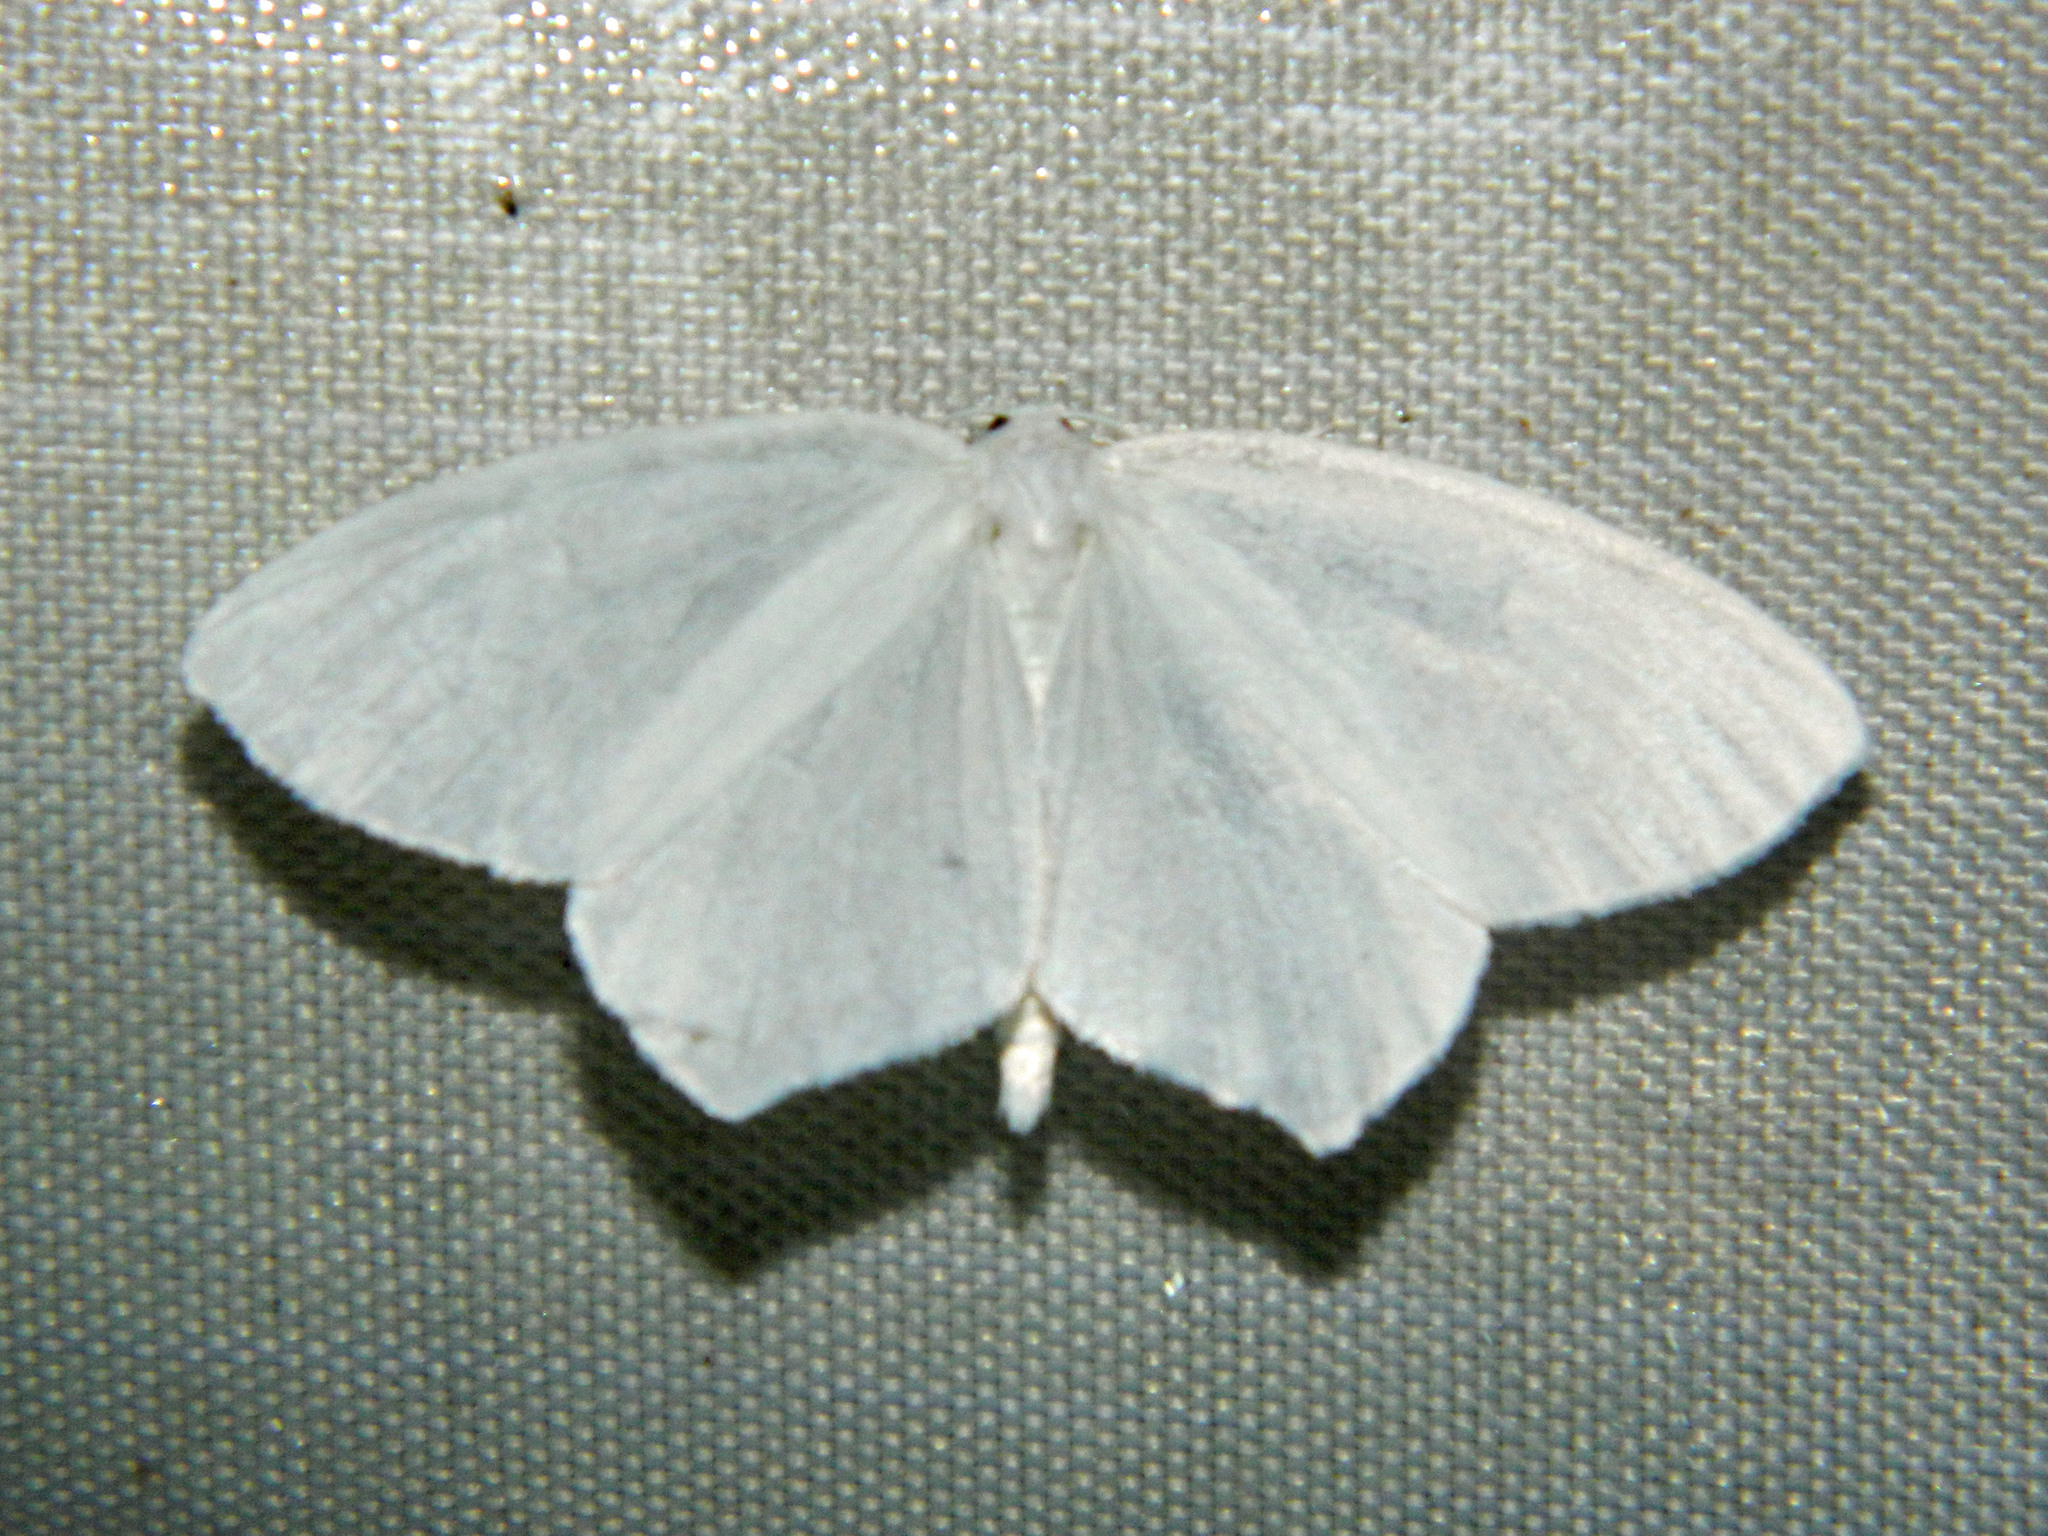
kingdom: Animalia
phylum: Arthropoda
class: Insecta
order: Lepidoptera
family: Geometridae
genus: Eugonobapta
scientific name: Eugonobapta nivosaria
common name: Snowy geometer
